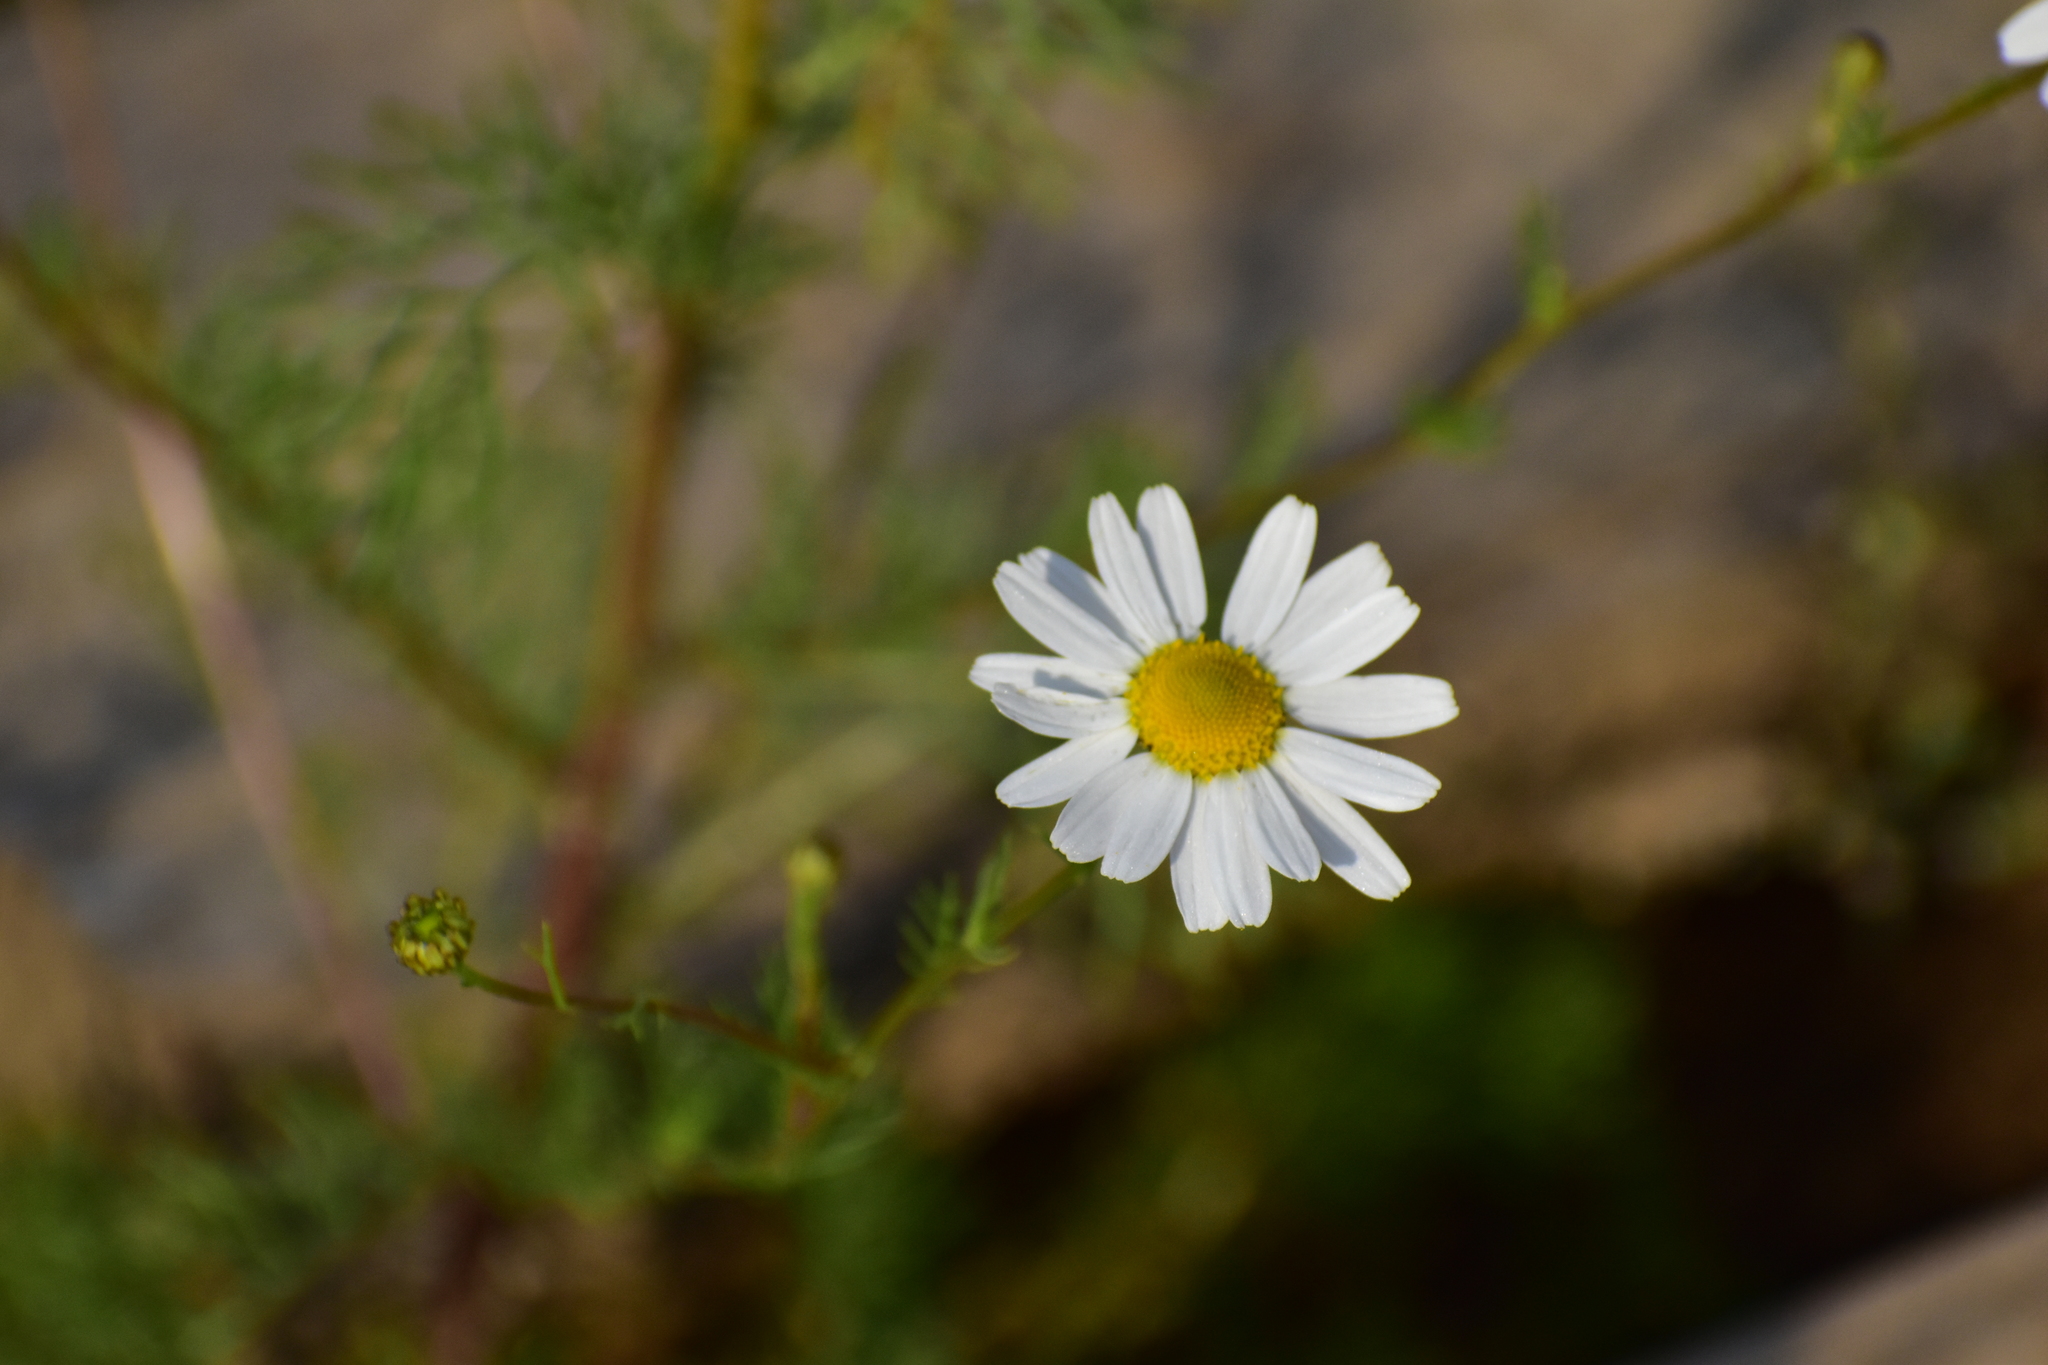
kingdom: Plantae
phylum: Tracheophyta
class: Magnoliopsida
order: Asterales
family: Asteraceae
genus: Tripleurospermum
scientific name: Tripleurospermum inodorum
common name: Scentless mayweed
